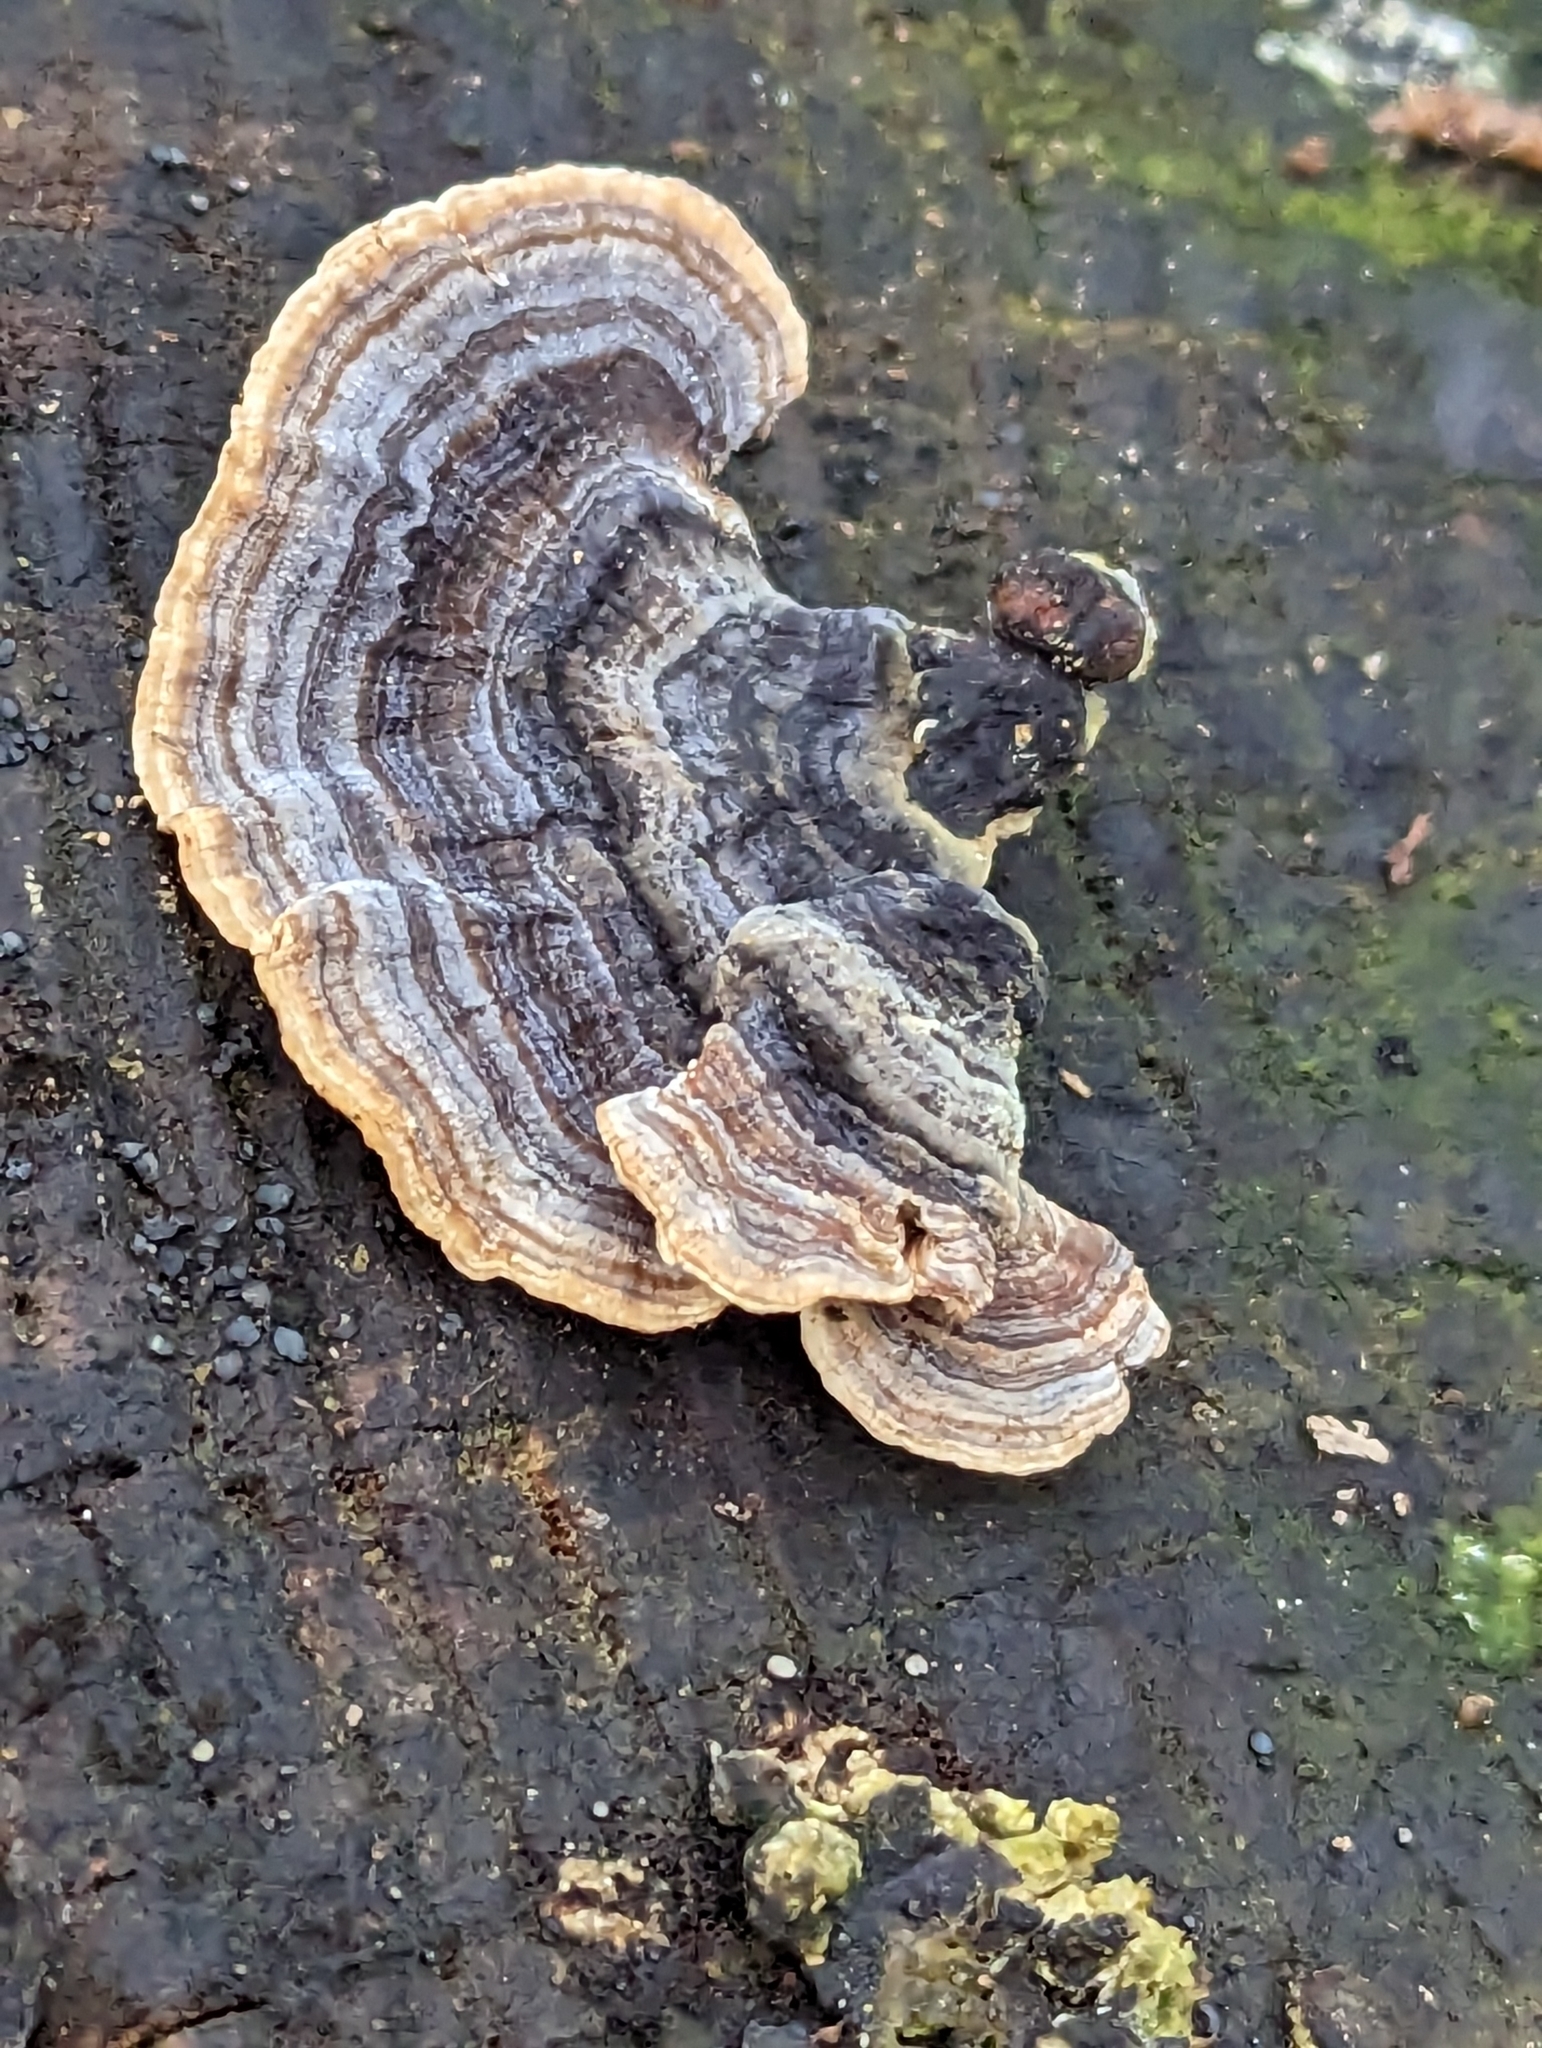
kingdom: Fungi
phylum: Basidiomycota
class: Agaricomycetes
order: Polyporales
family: Polyporaceae
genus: Trametes
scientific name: Trametes versicolor
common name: Turkeytail
